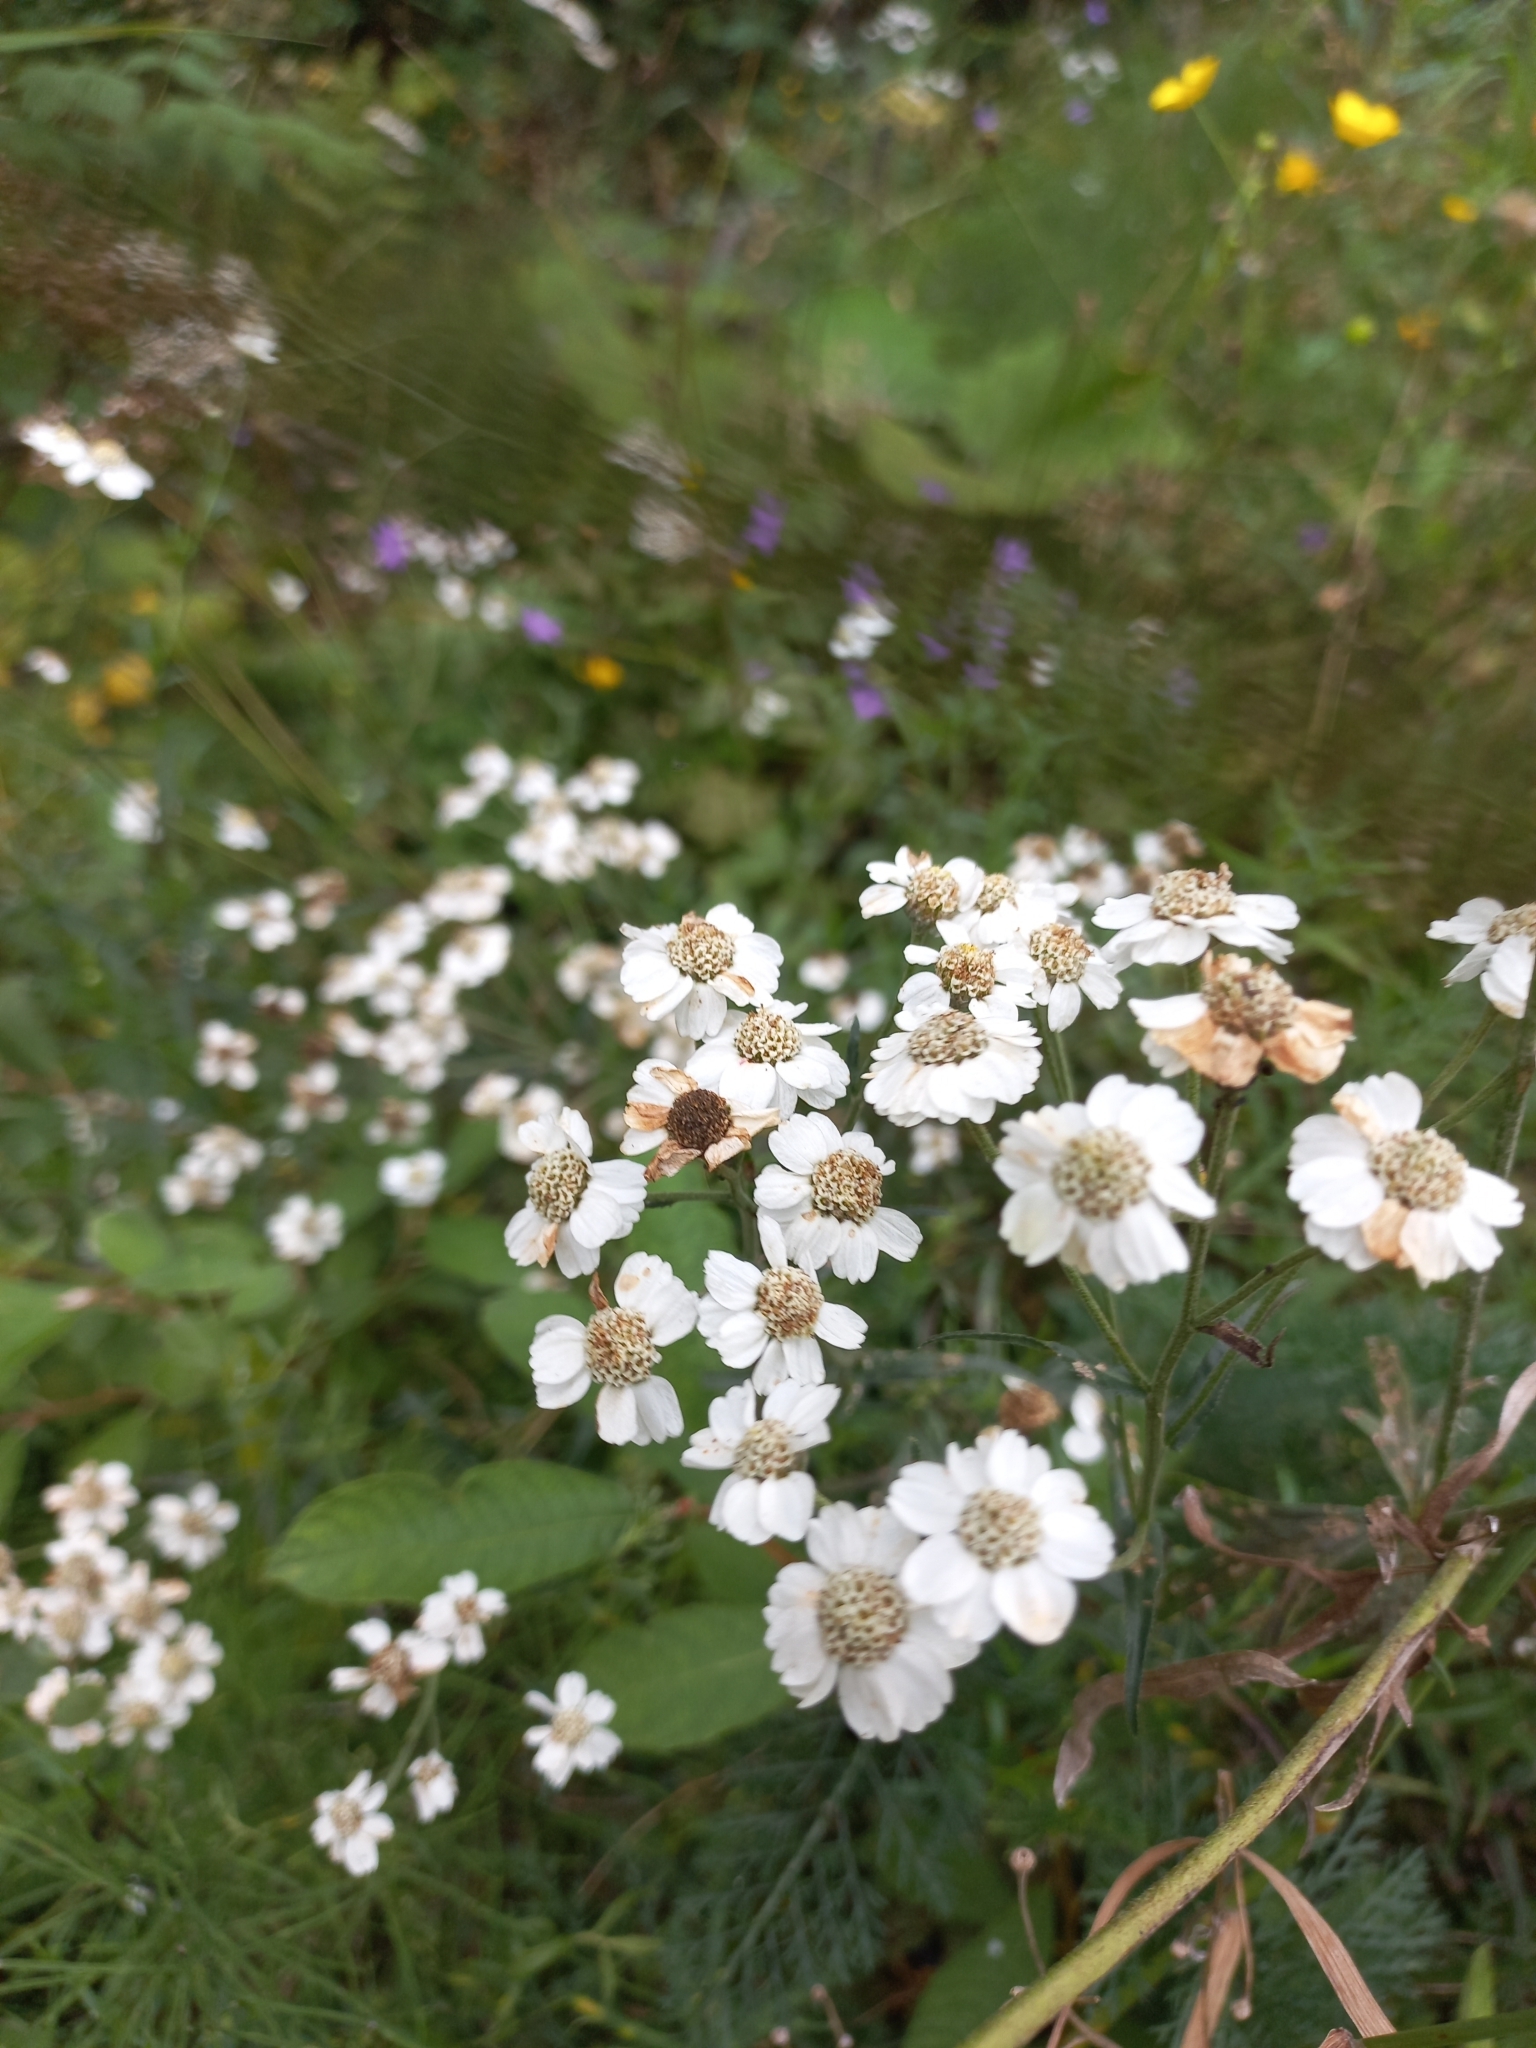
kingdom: Plantae
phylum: Tracheophyta
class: Magnoliopsida
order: Asterales
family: Asteraceae
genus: Achillea
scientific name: Achillea ptarmica
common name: Sneezeweed
